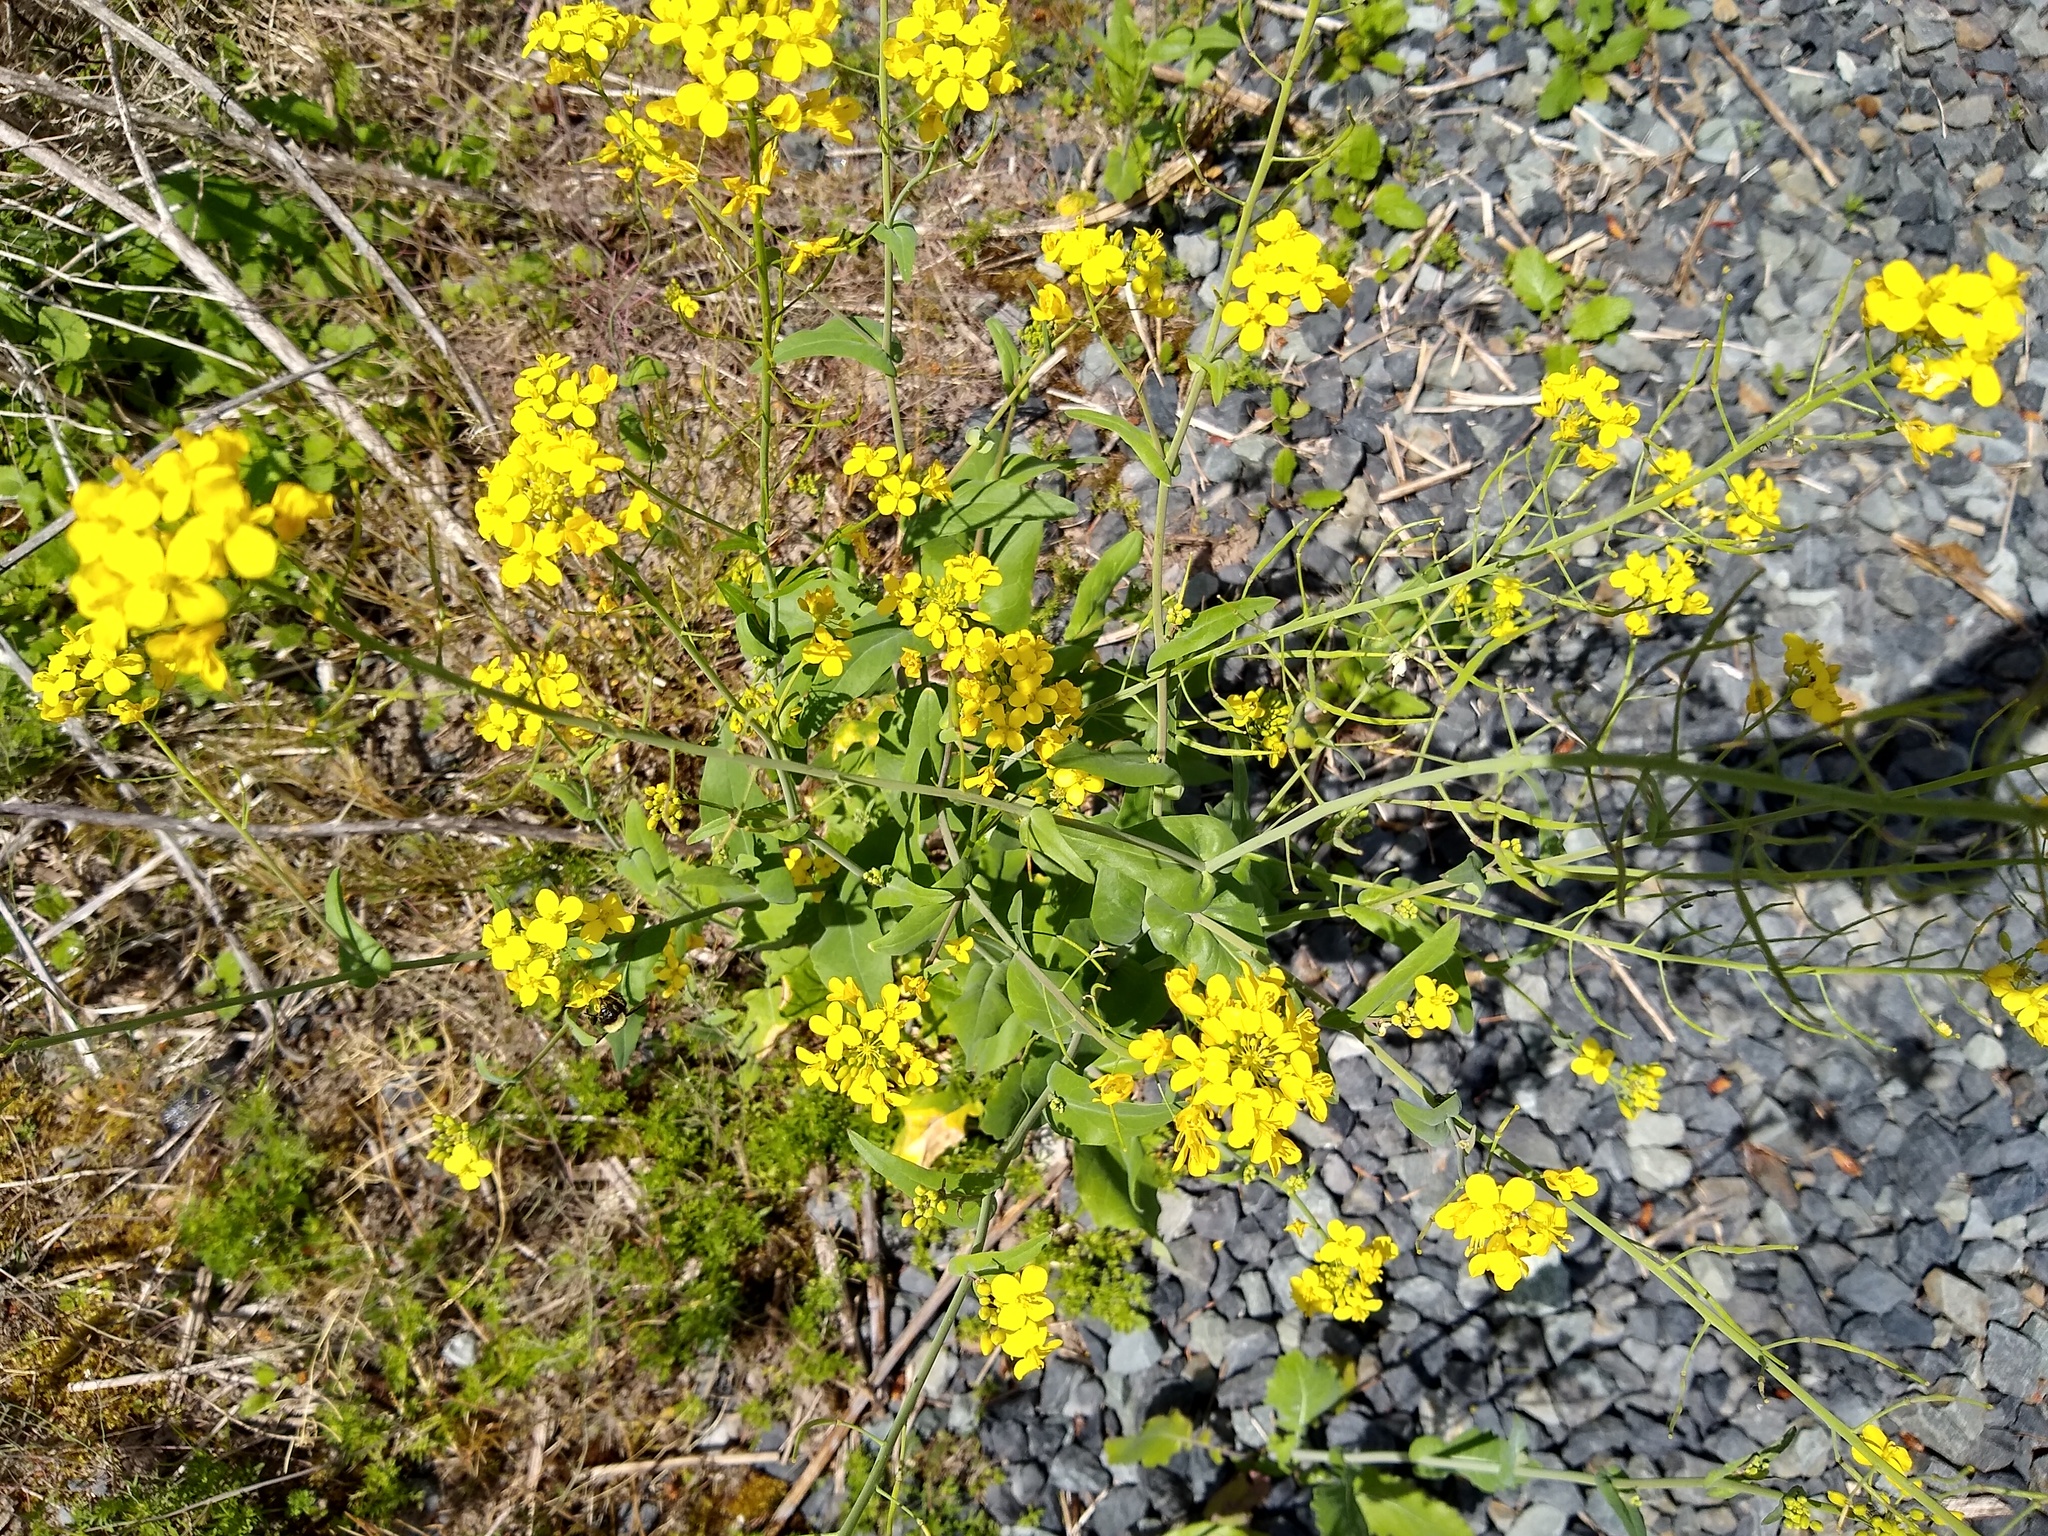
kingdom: Plantae
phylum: Tracheophyta
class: Magnoliopsida
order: Brassicales
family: Brassicaceae
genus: Brassica
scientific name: Brassica rapa
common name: Field mustard
